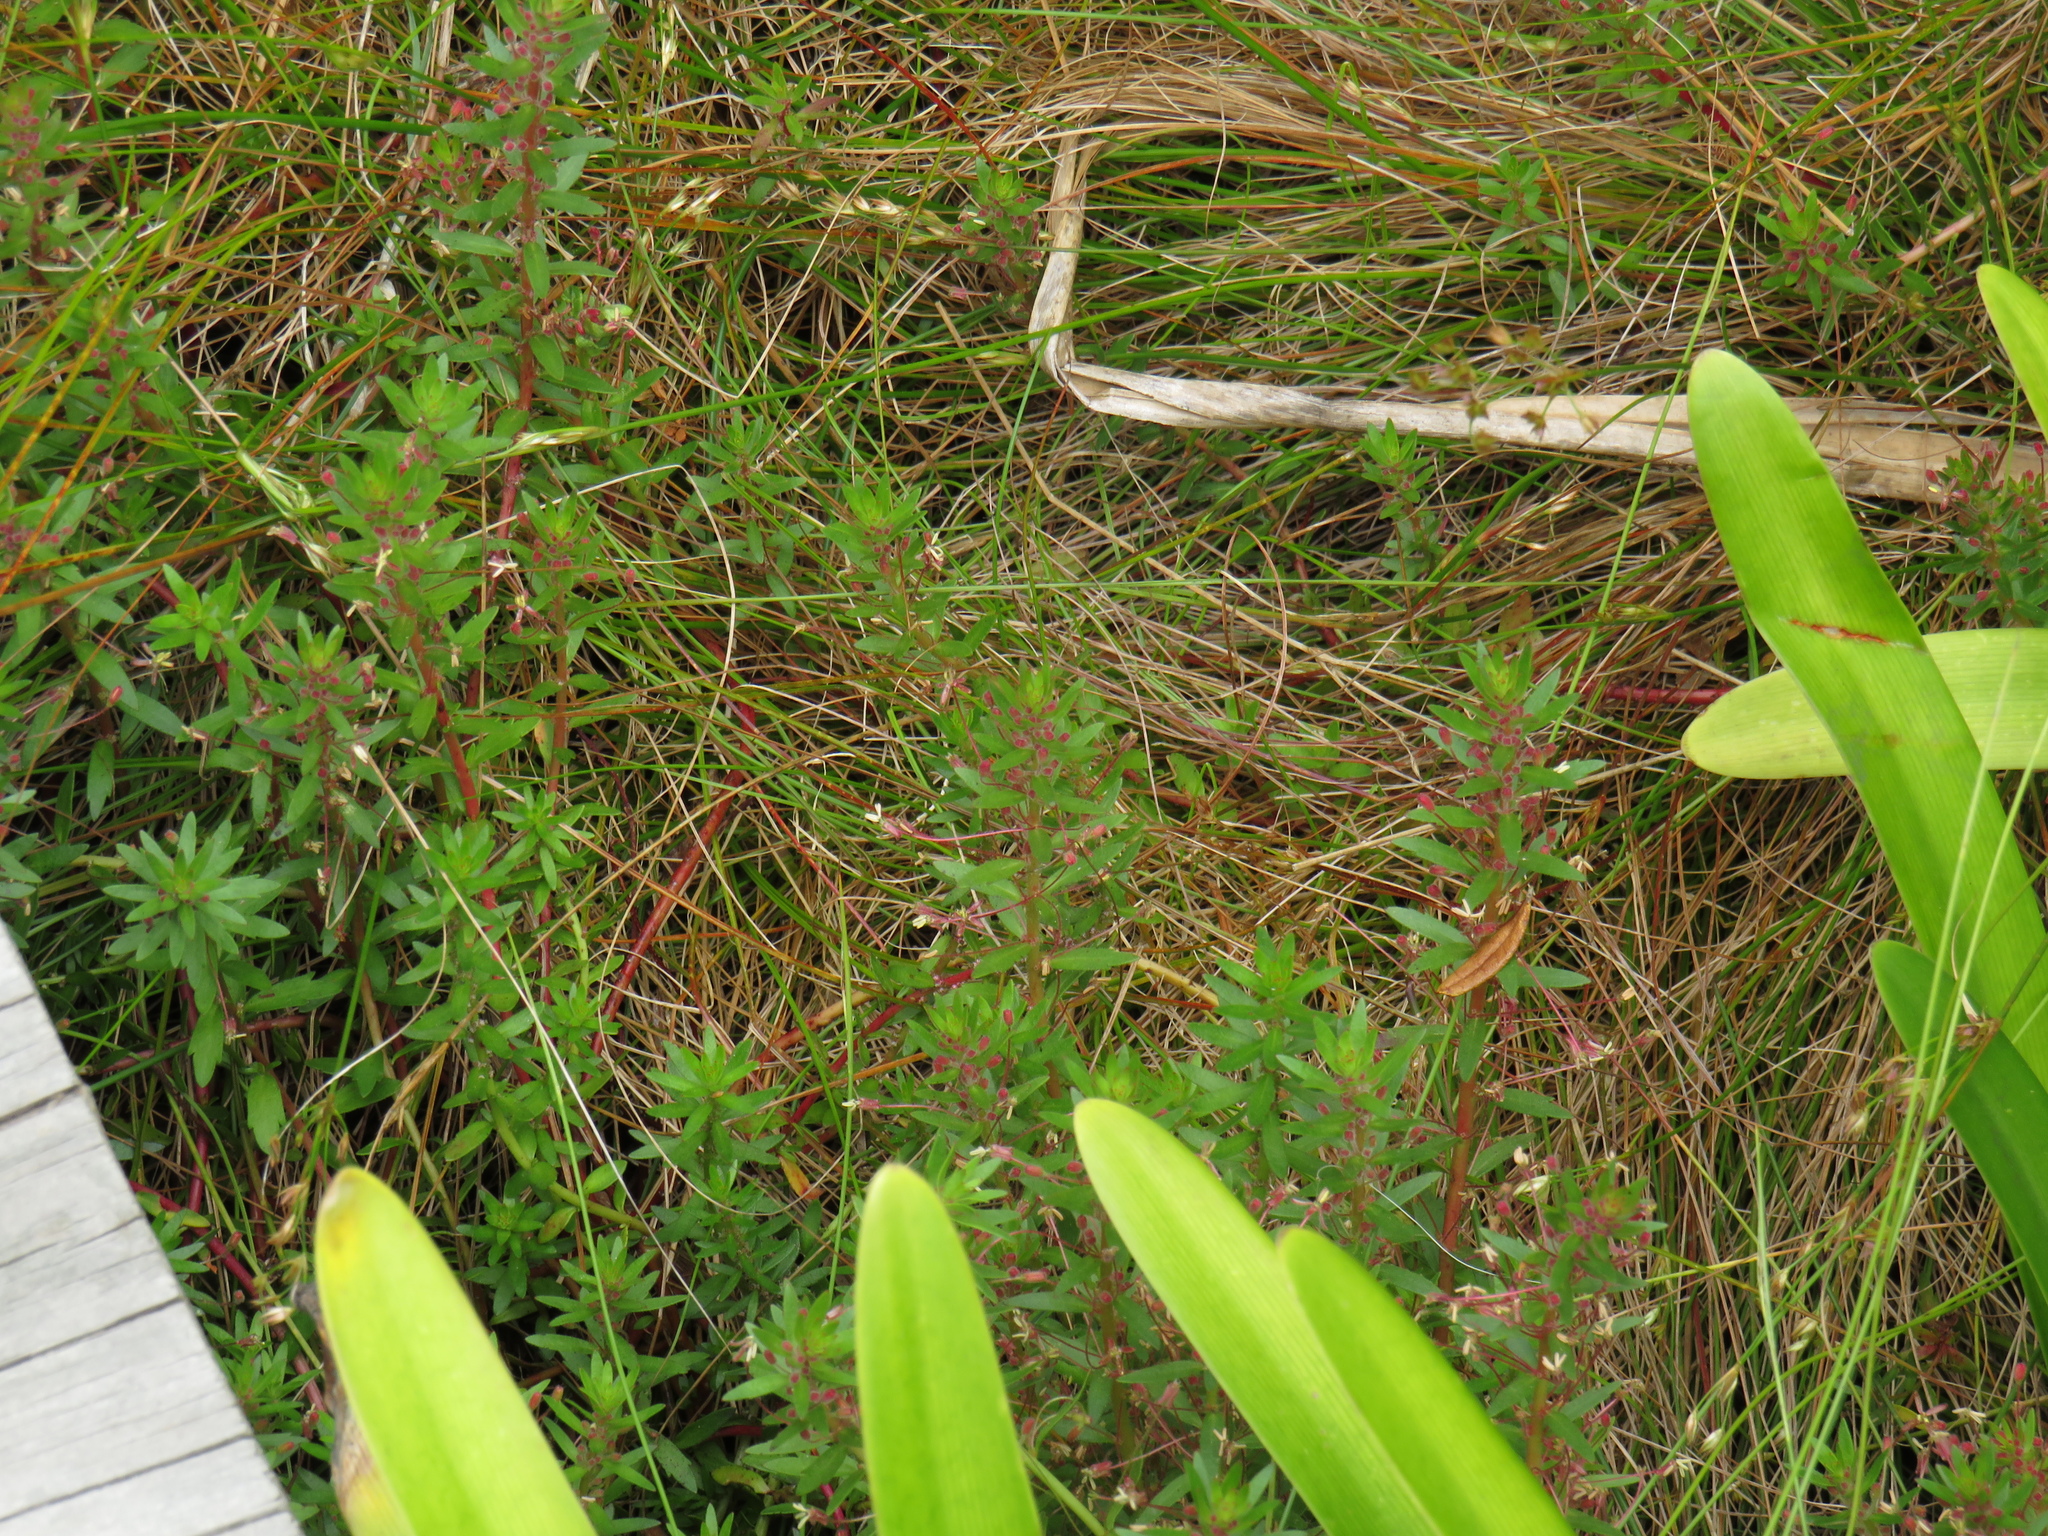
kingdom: Plantae
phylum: Tracheophyta
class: Magnoliopsida
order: Saxifragales
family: Haloragaceae
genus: Laurembergia
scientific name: Laurembergia repens
